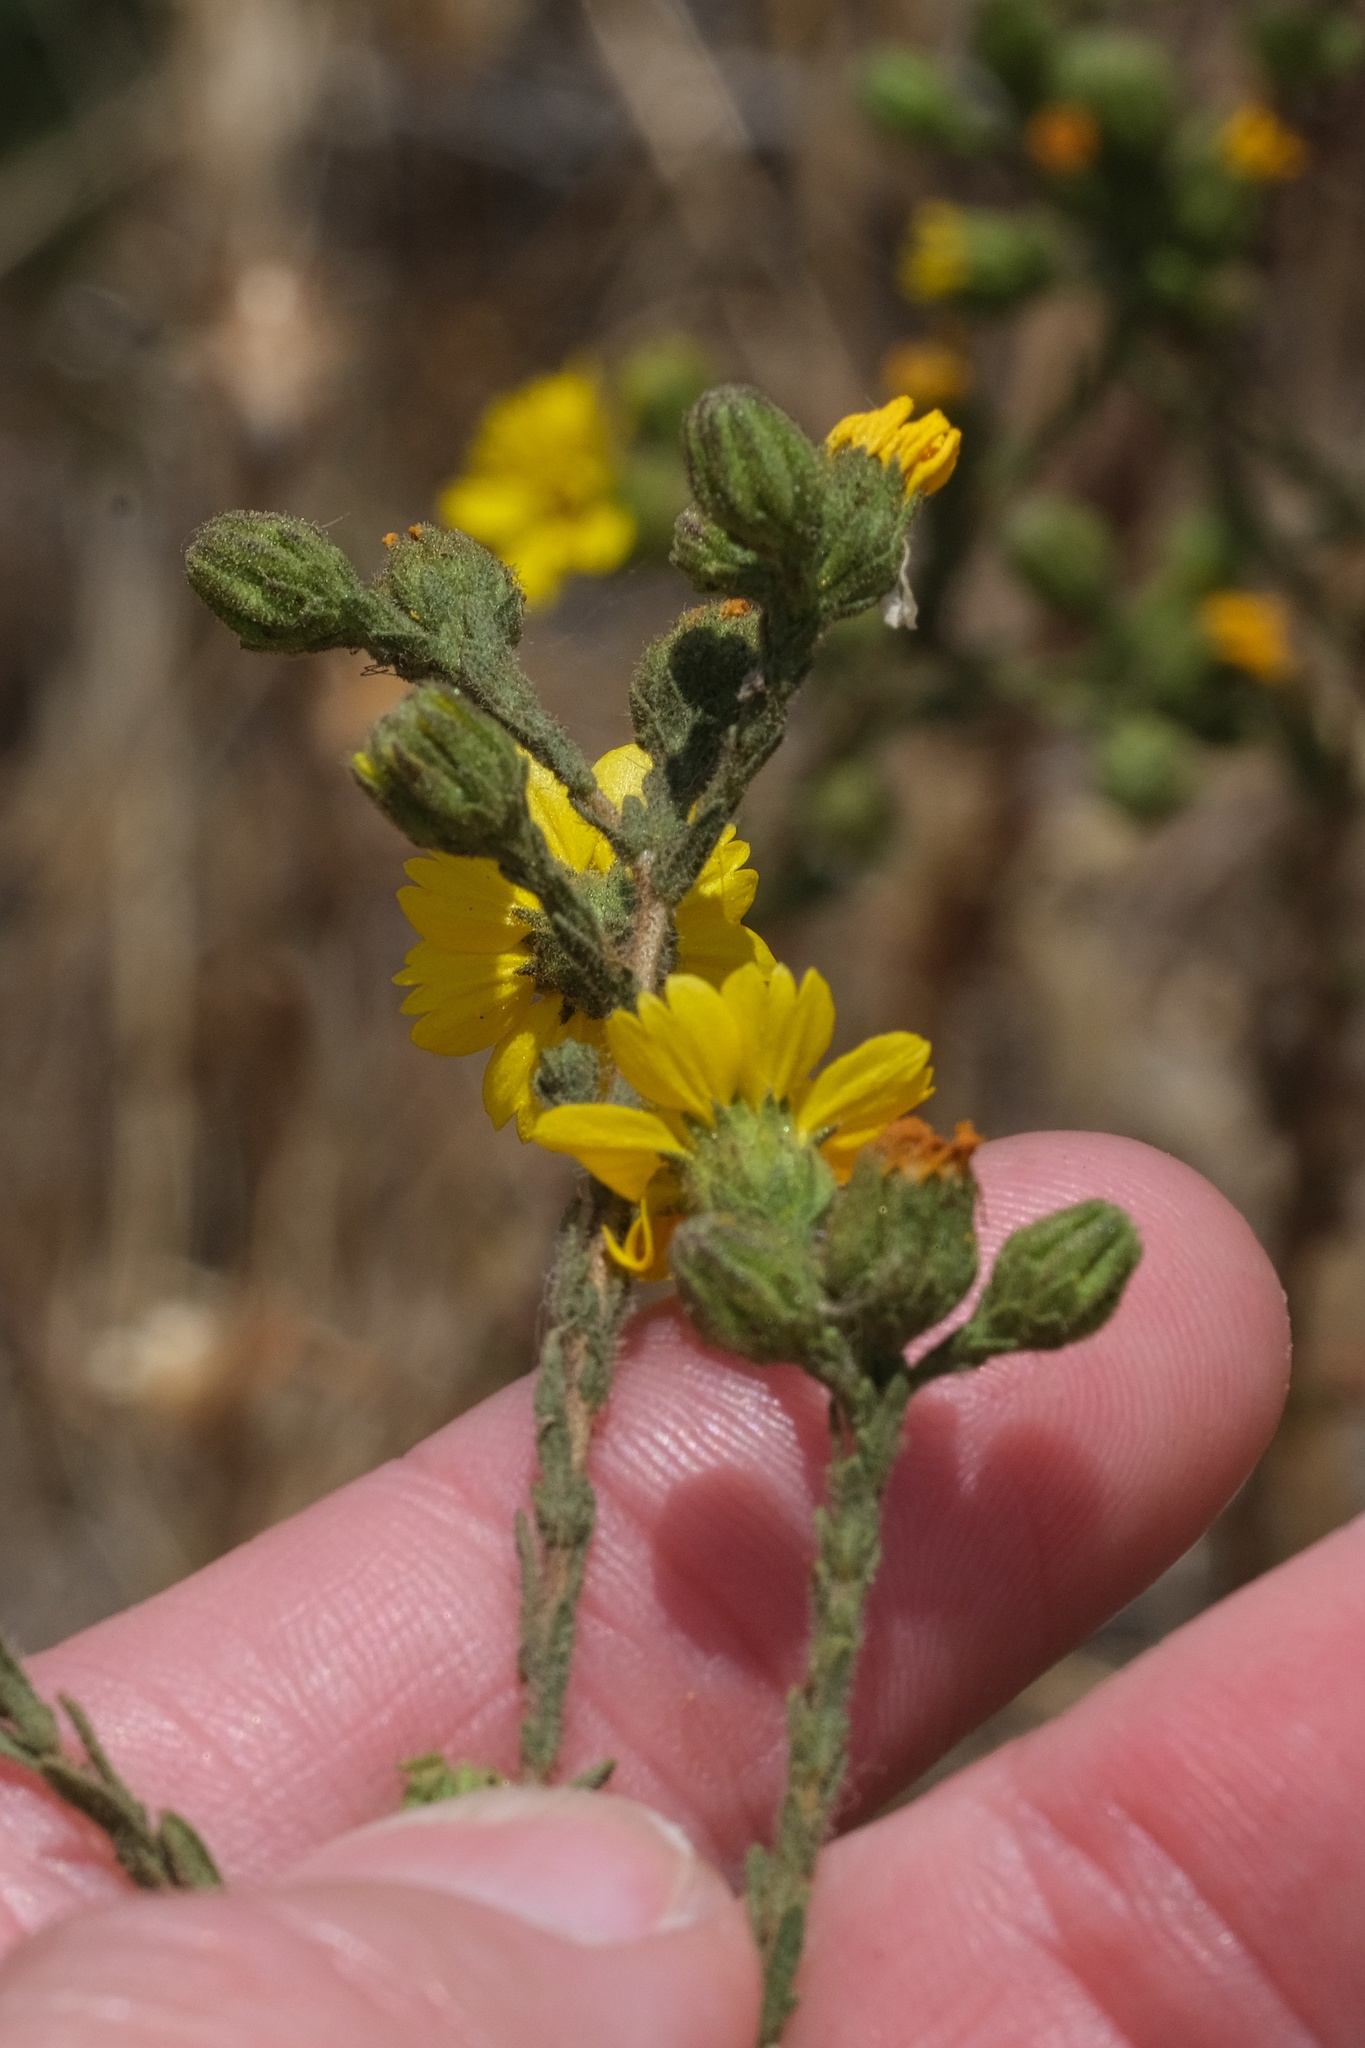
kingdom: Plantae
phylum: Tracheophyta
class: Magnoliopsida
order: Asterales
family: Asteraceae
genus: Deinandra
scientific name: Deinandra paniculata
